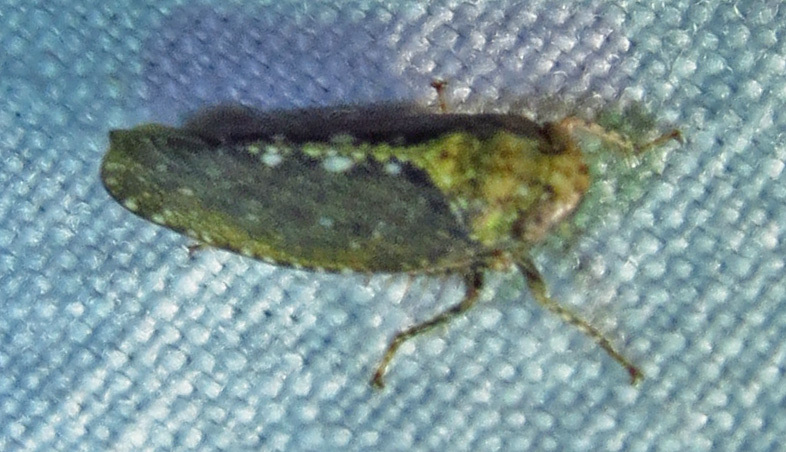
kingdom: Animalia
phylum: Arthropoda
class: Insecta
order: Hemiptera
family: Cicadellidae
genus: Excultanus
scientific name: Excultanus excultus
